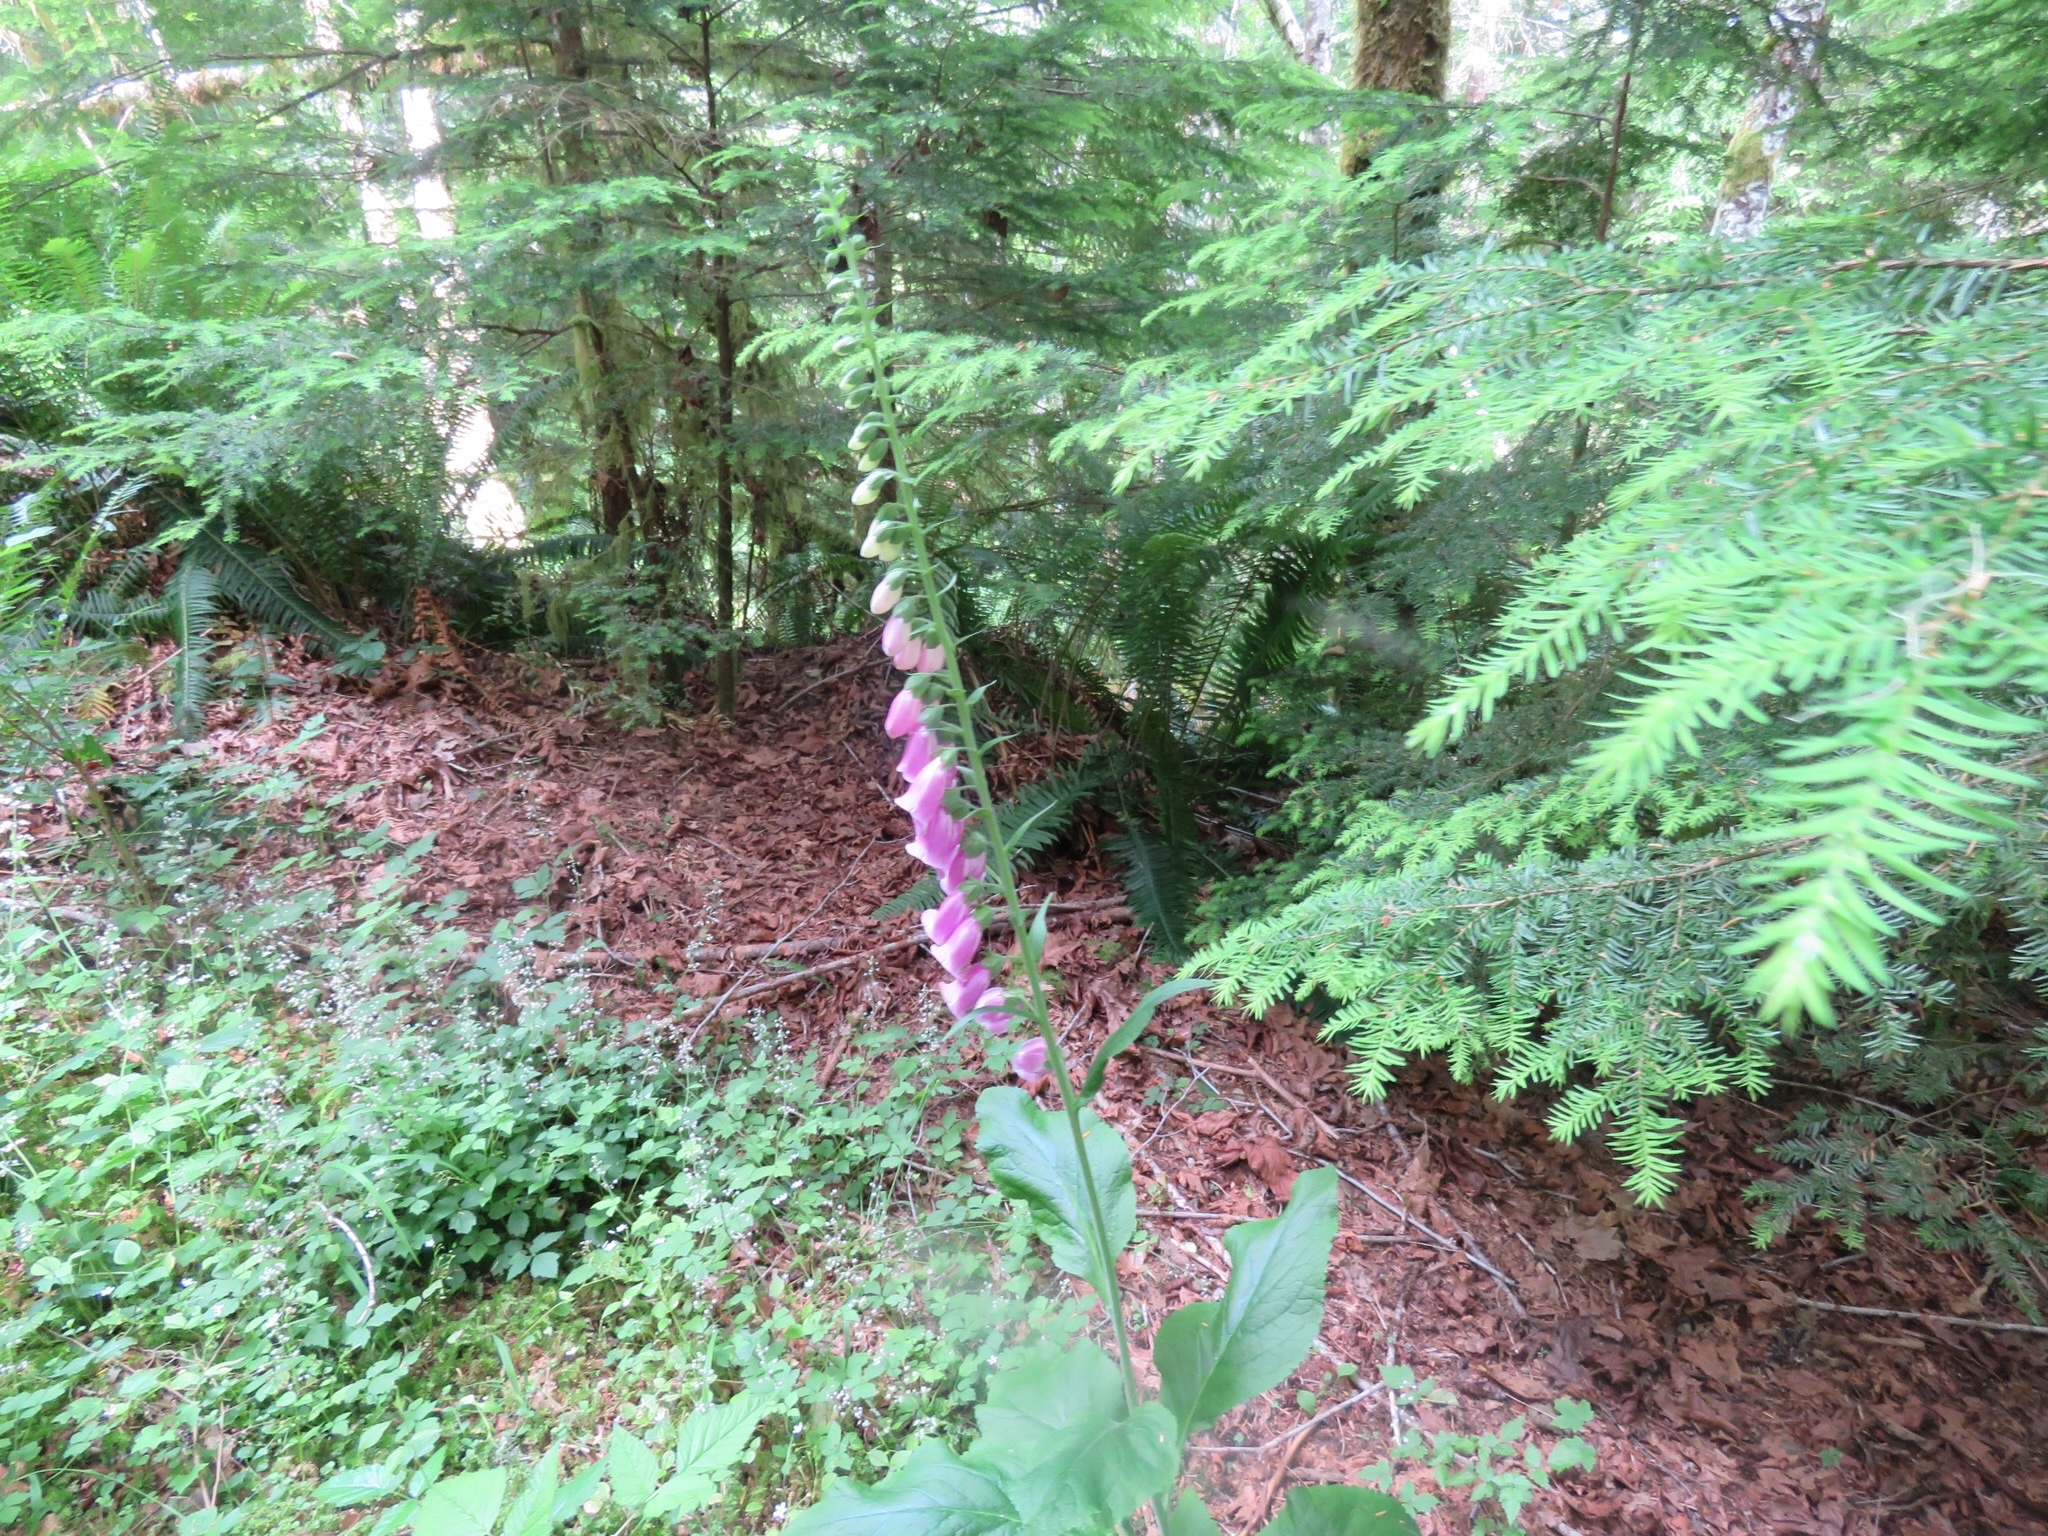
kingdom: Plantae
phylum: Tracheophyta
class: Magnoliopsida
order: Lamiales
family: Plantaginaceae
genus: Digitalis
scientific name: Digitalis purpurea
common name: Foxglove
